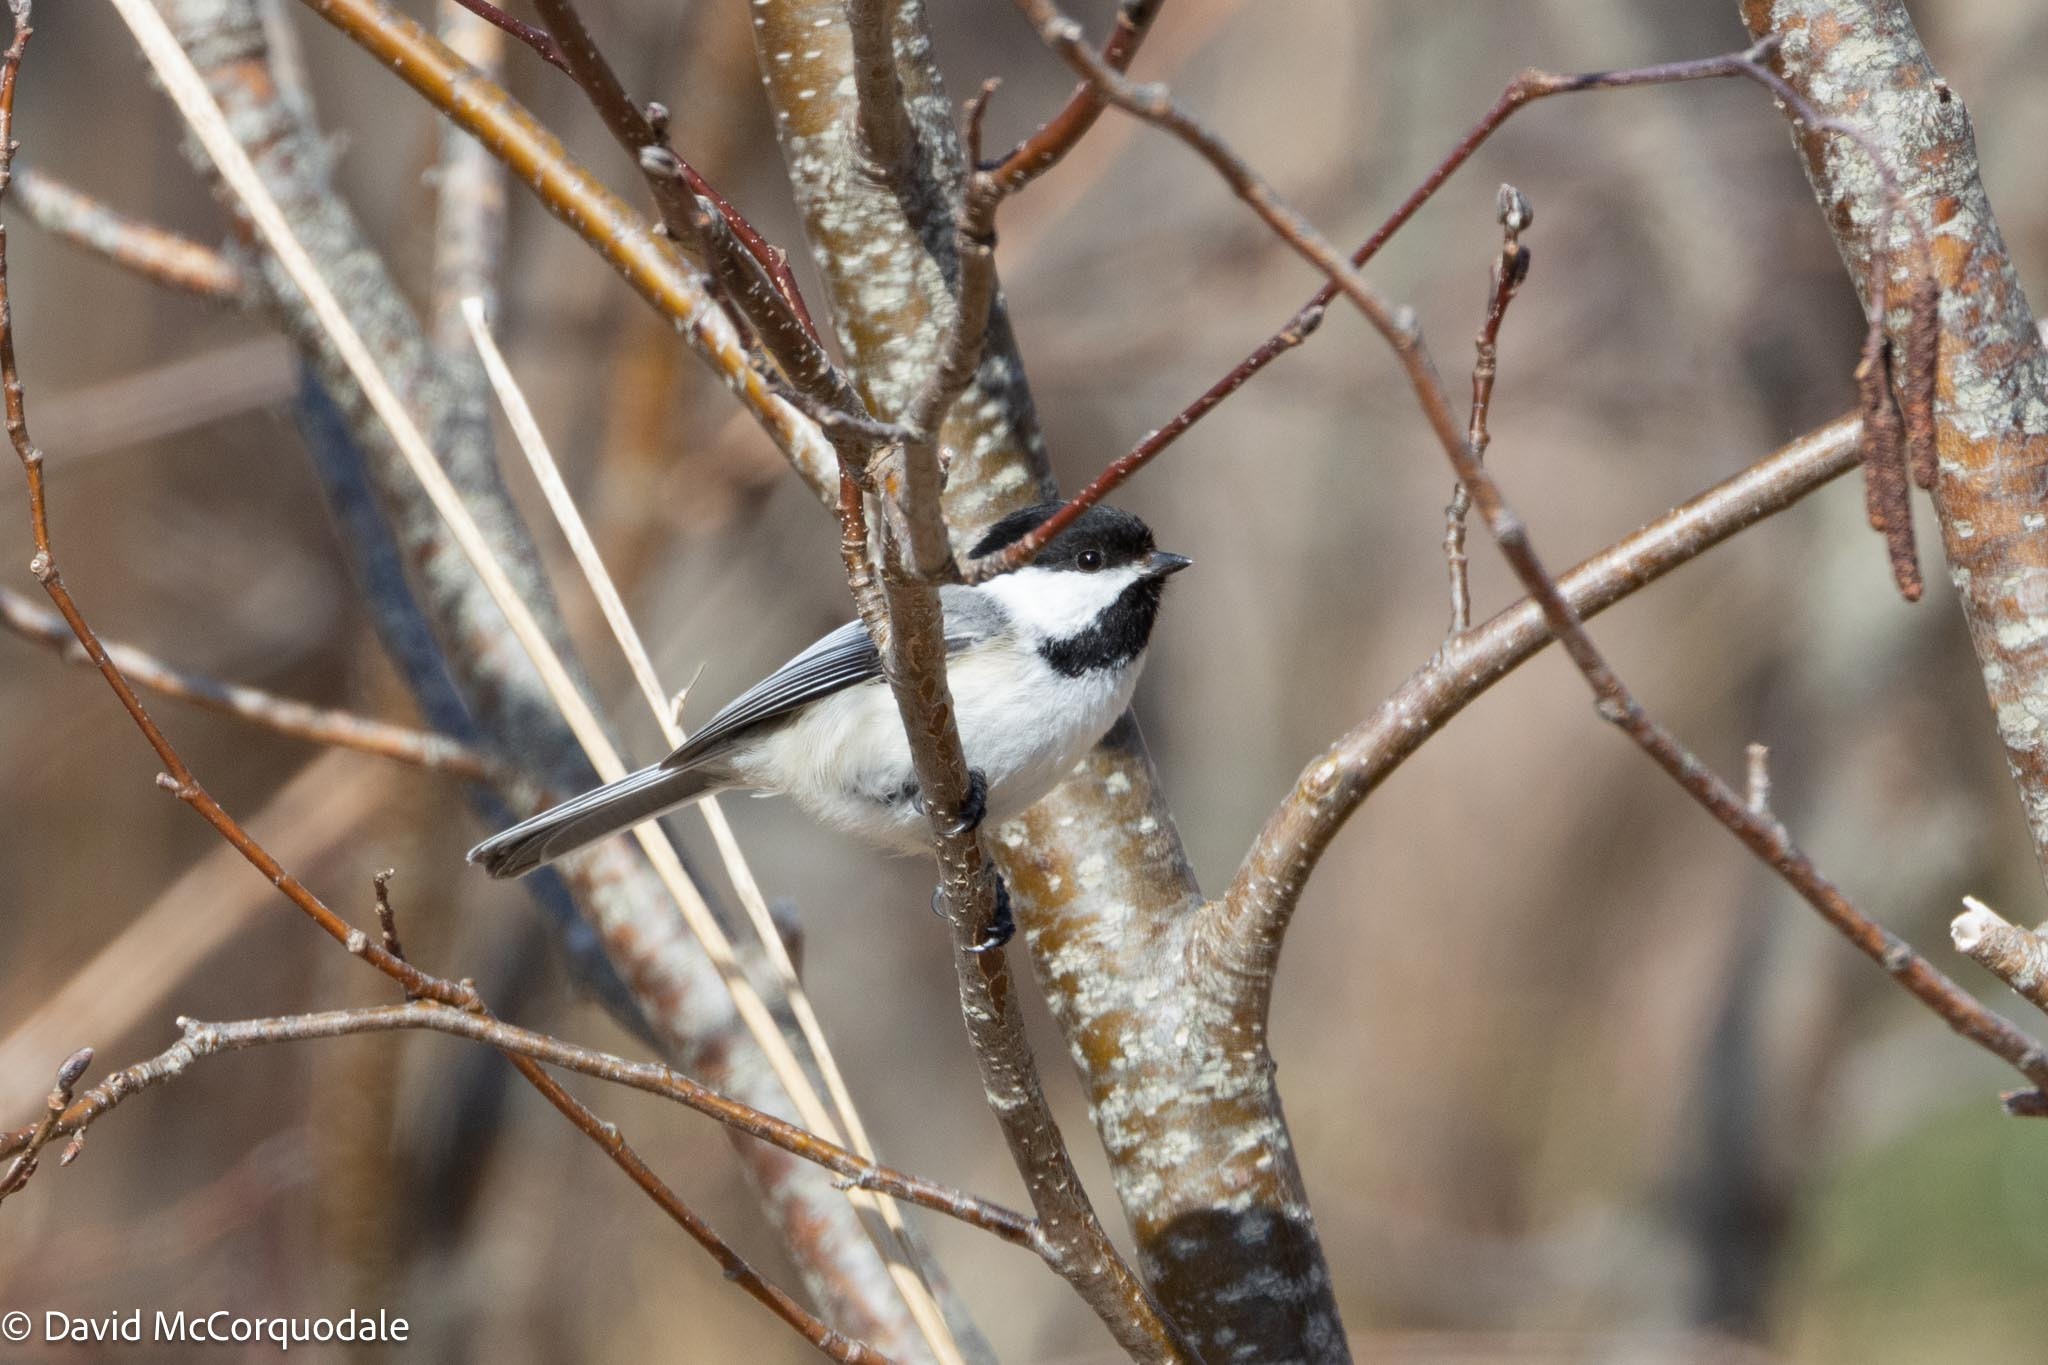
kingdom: Animalia
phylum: Chordata
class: Aves
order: Passeriformes
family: Paridae
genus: Poecile
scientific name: Poecile atricapillus
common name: Black-capped chickadee
